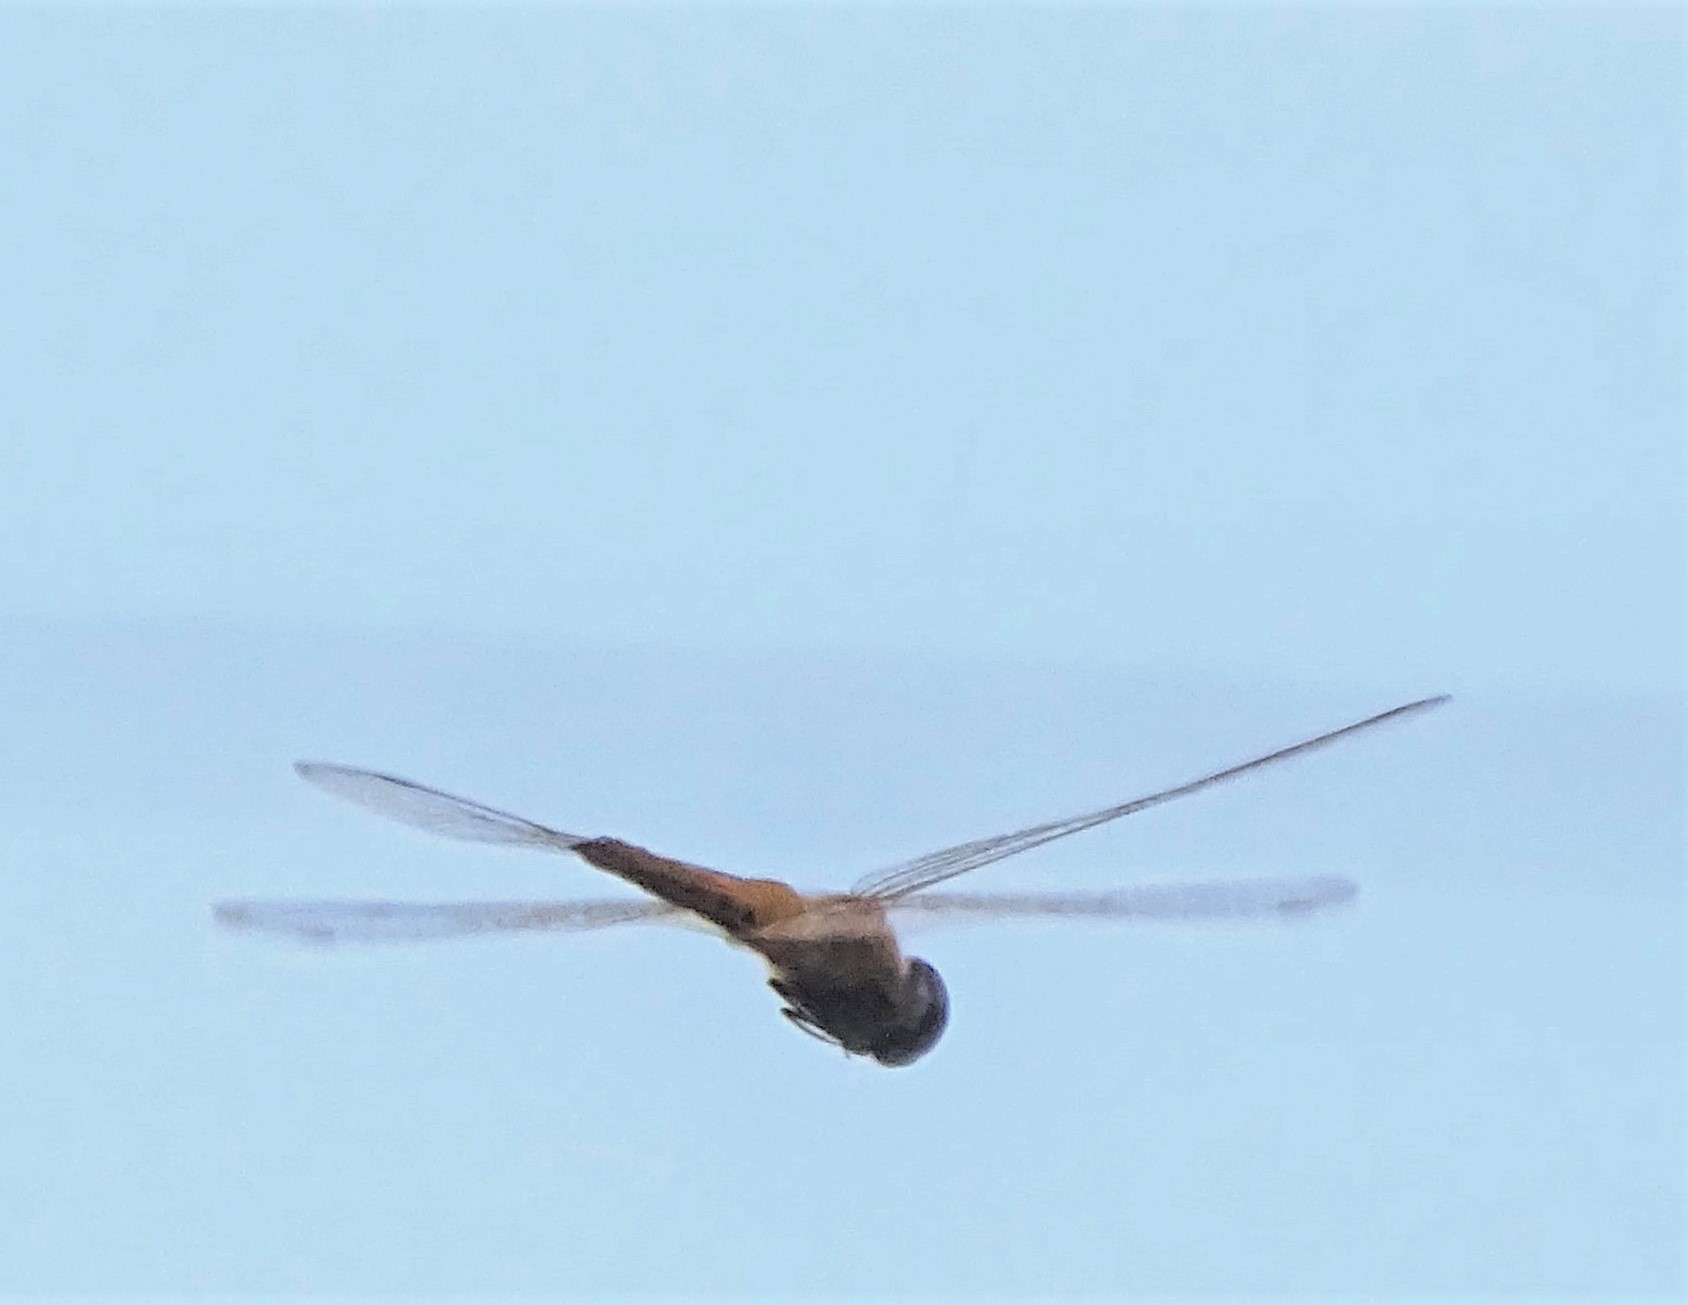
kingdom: Animalia
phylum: Arthropoda
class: Insecta
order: Odonata
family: Libellulidae
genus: Pantala
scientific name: Pantala flavescens
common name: Wandering glider
